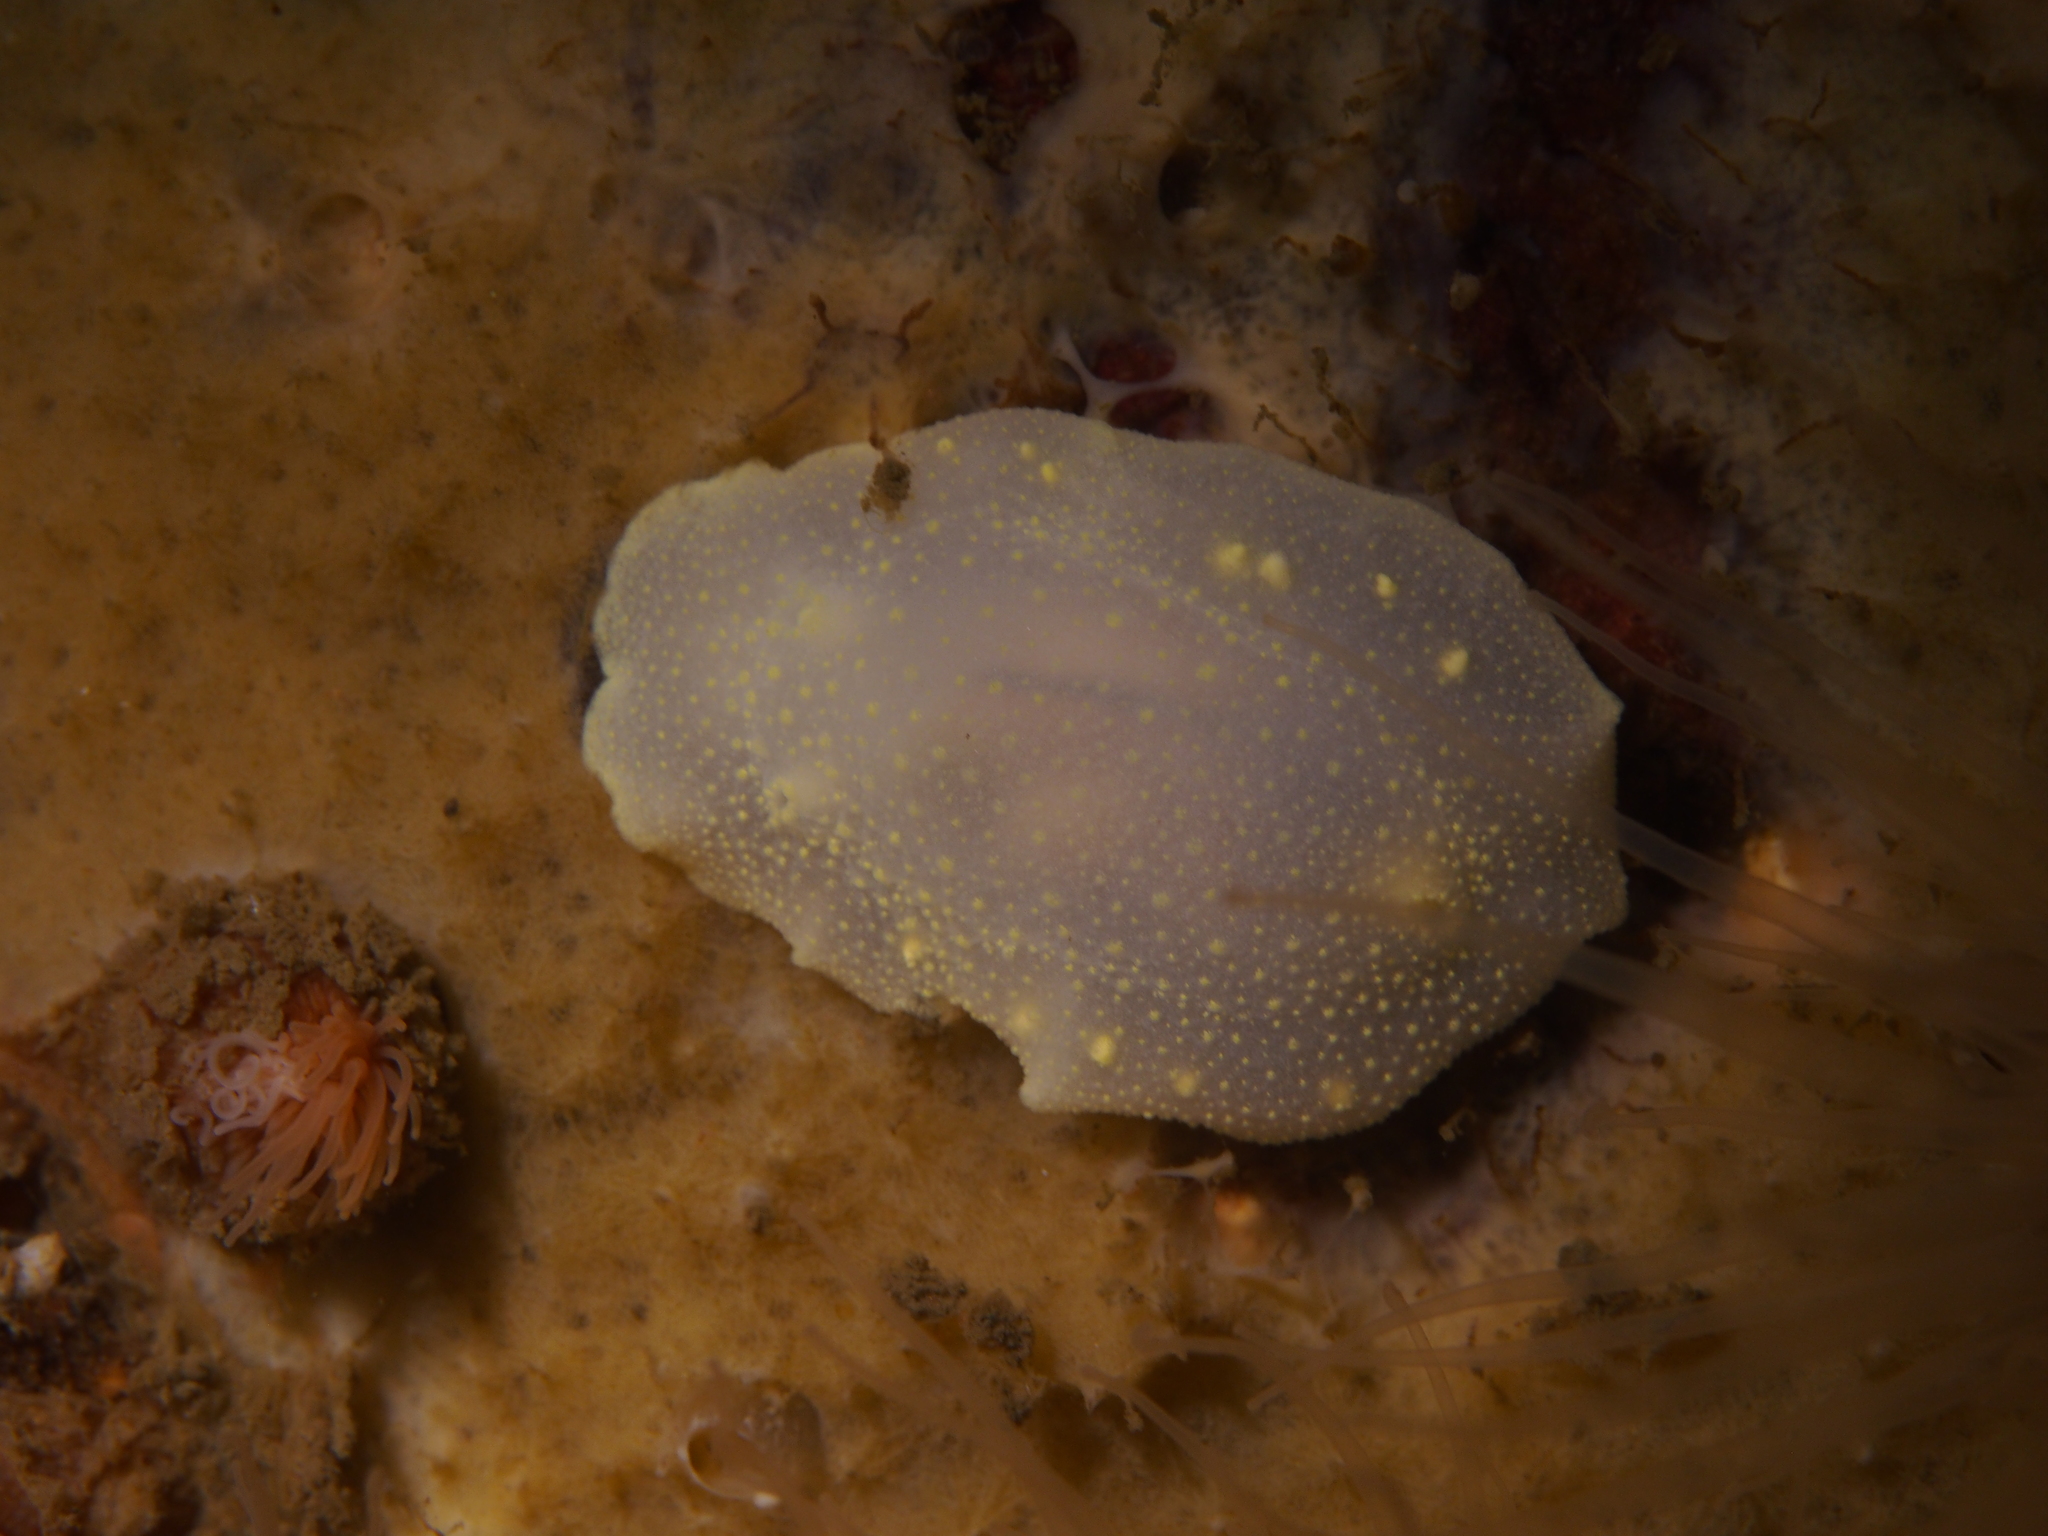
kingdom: Animalia
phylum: Mollusca
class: Gastropoda
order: Nudibranchia
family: Cadlinidae
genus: Cadlina
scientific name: Cadlina laevis
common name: White atlantic cadlina
